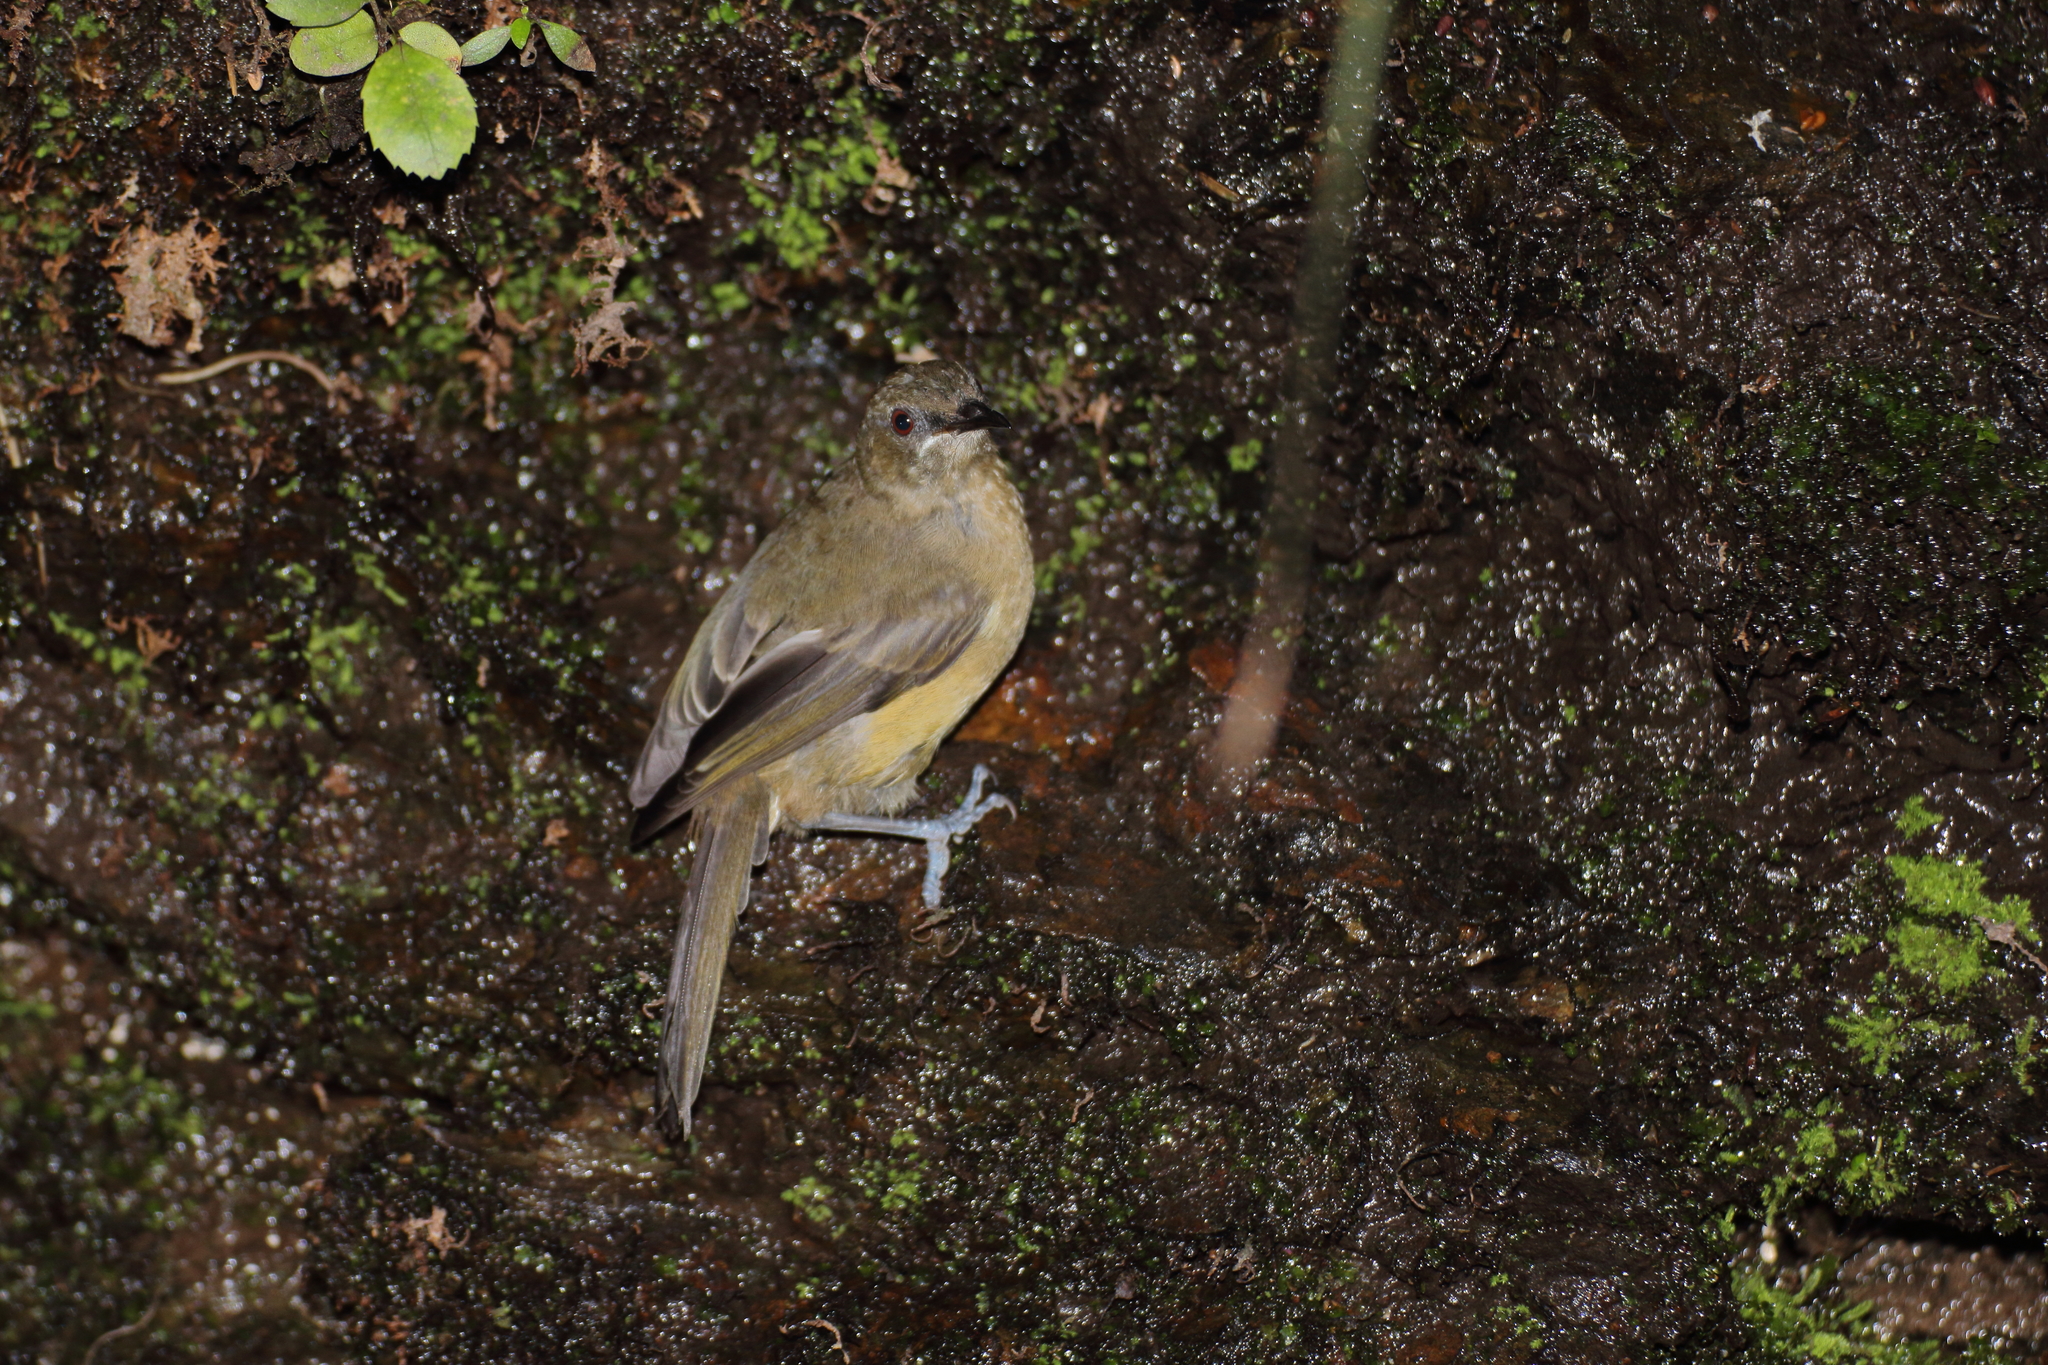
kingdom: Animalia
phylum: Chordata
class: Aves
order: Passeriformes
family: Meliphagidae
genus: Anthornis
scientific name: Anthornis melanura
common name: New zealand bellbird
